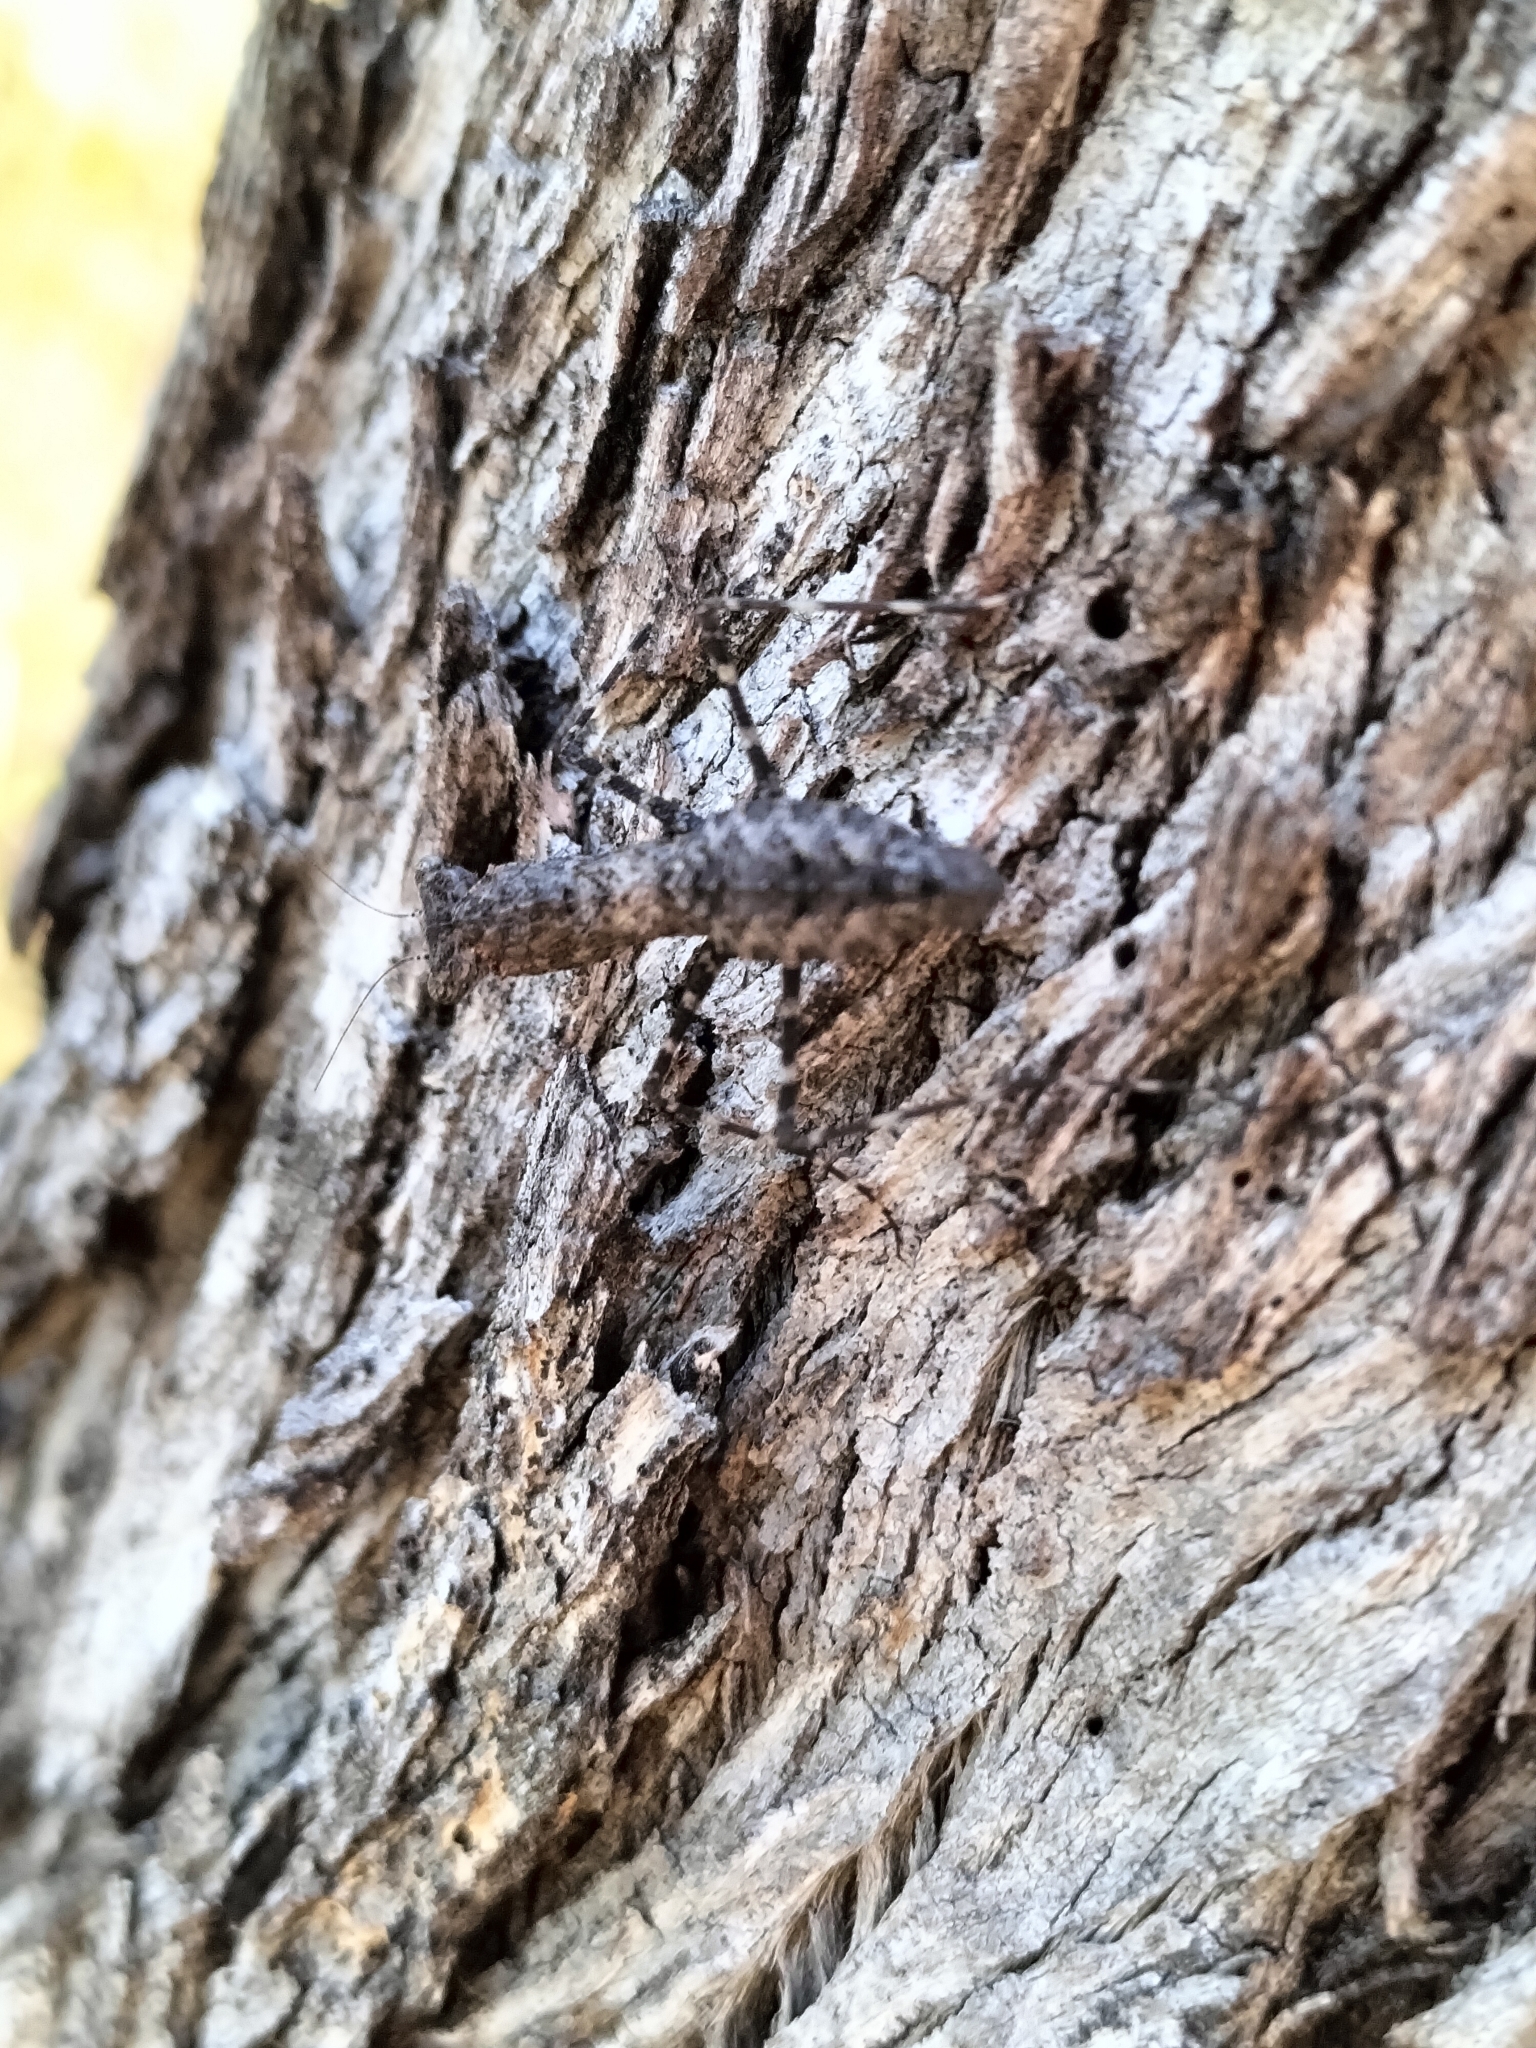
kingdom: Animalia
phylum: Arthropoda
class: Insecta
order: Mantodea
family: Nanomantidae
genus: Phthersigena
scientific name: Phthersigena conspersa
